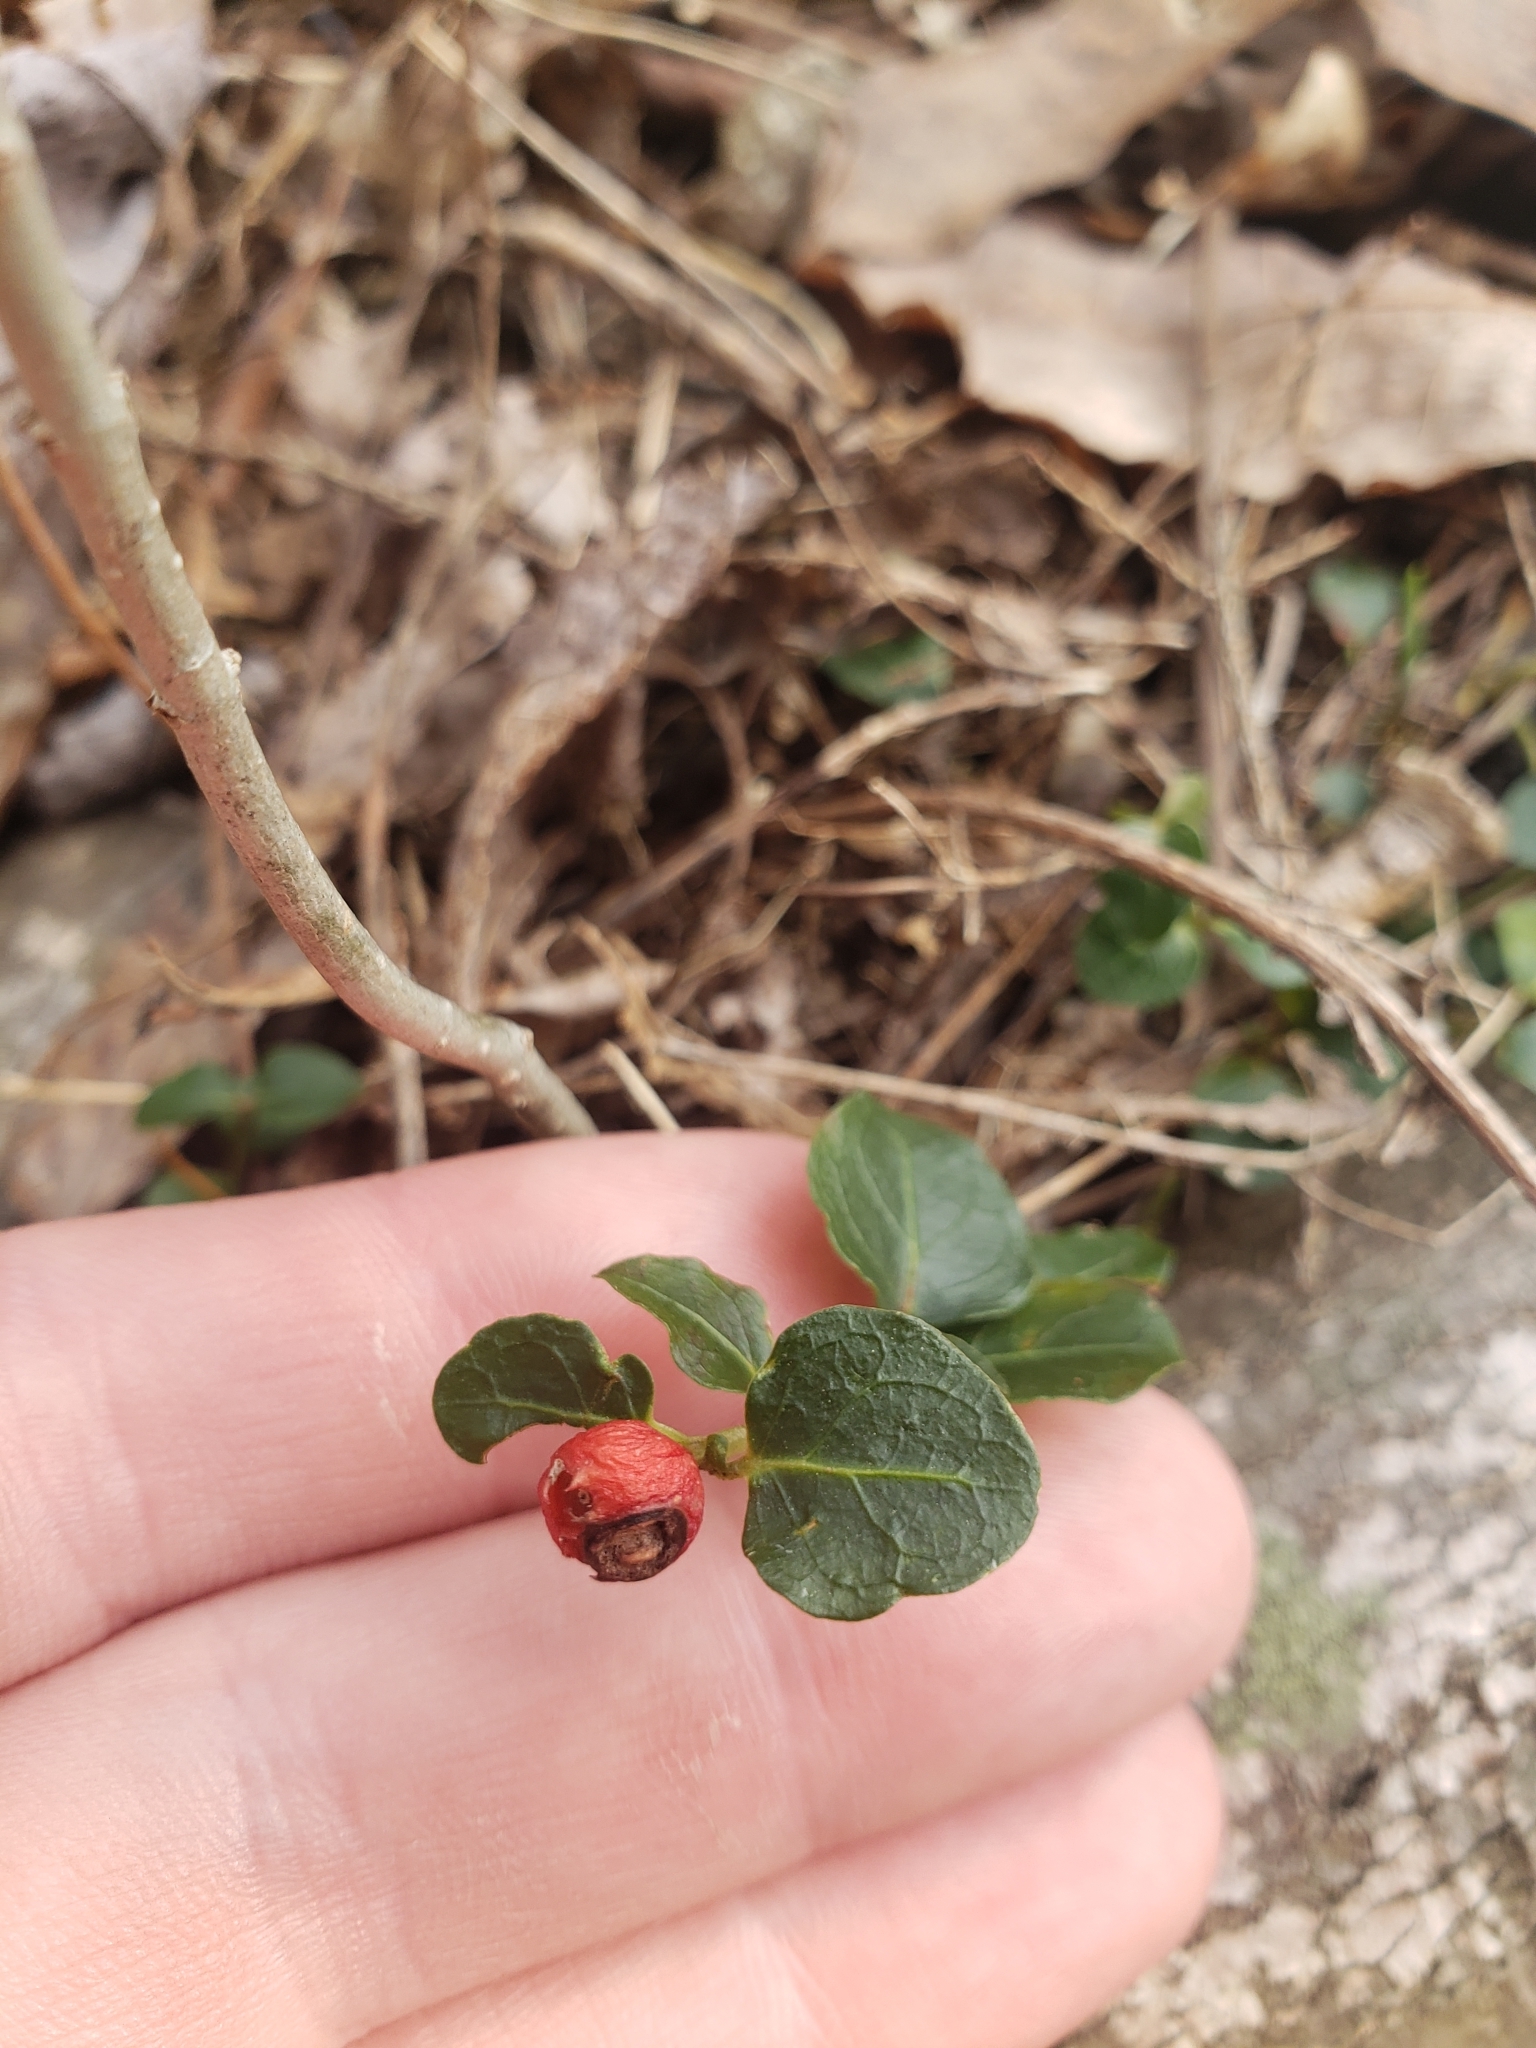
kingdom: Plantae
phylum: Tracheophyta
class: Magnoliopsida
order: Gentianales
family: Rubiaceae
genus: Mitchella
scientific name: Mitchella repens
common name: Partridge-berry
